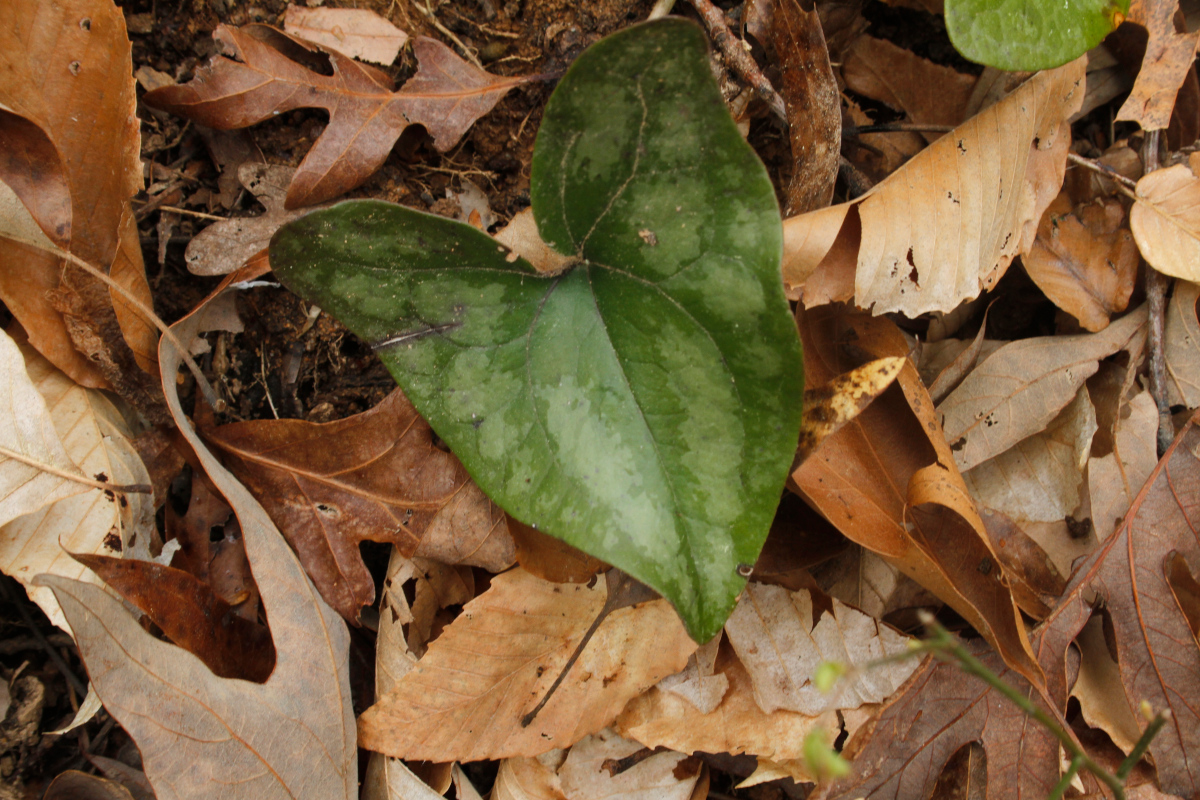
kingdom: Plantae
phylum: Tracheophyta
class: Magnoliopsida
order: Piperales
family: Aristolochiaceae
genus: Hexastylis
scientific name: Hexastylis arifolia
